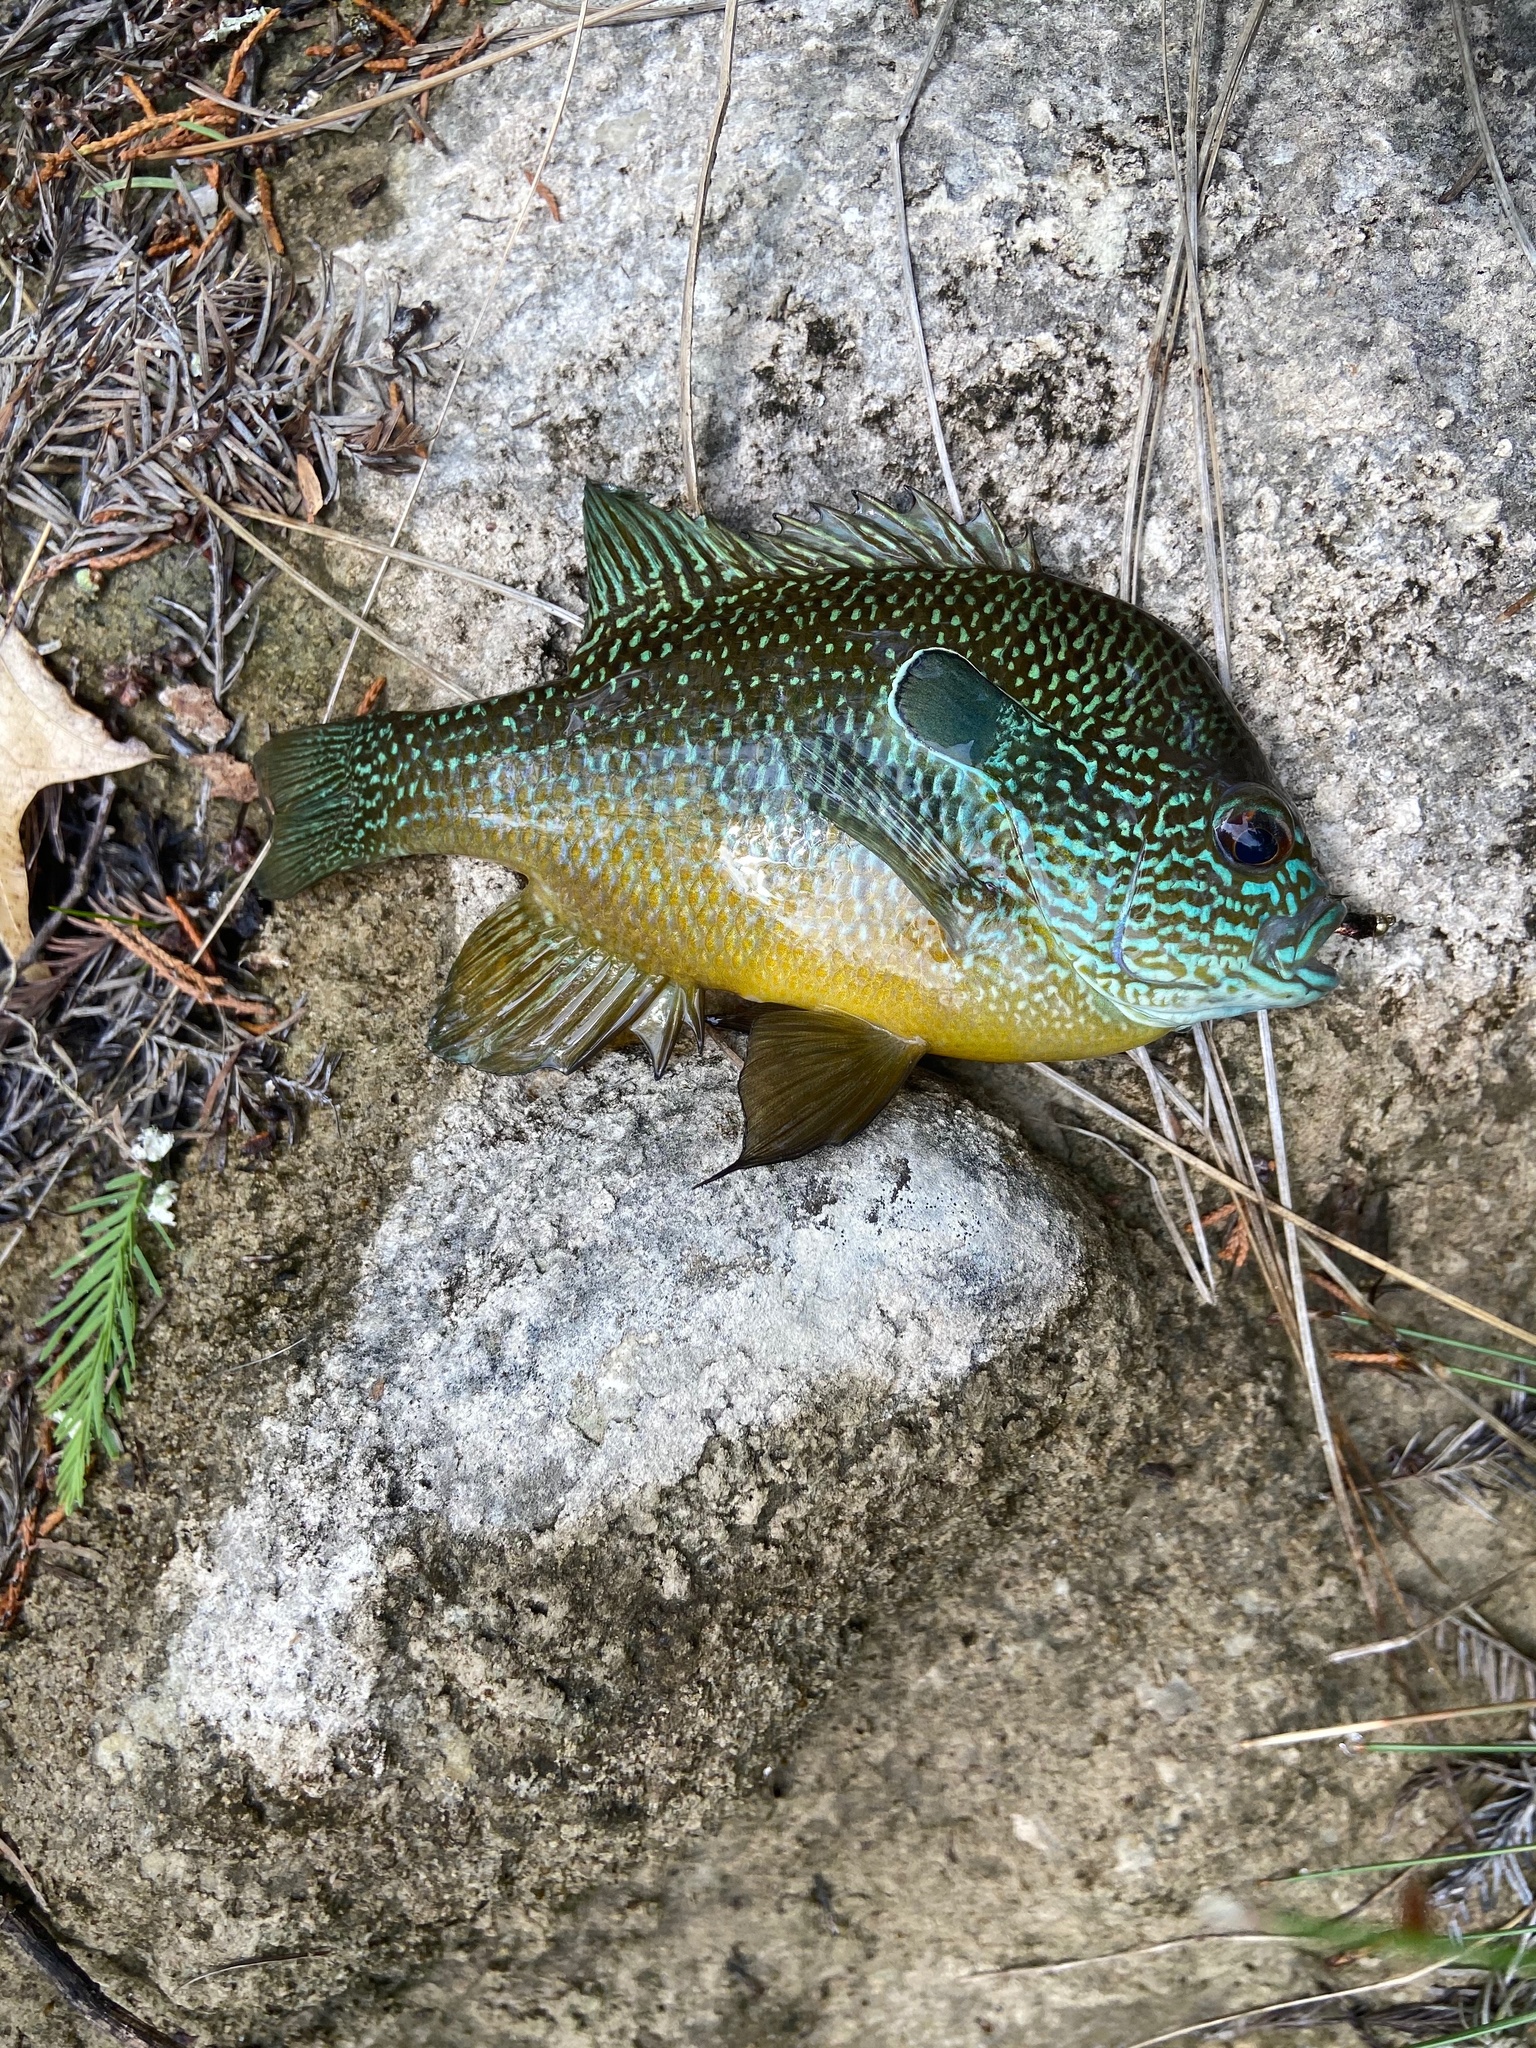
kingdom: Animalia
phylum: Chordata
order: Perciformes
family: Centrarchidae
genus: Lepomis
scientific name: Lepomis megalotis
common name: Longear sunfish
